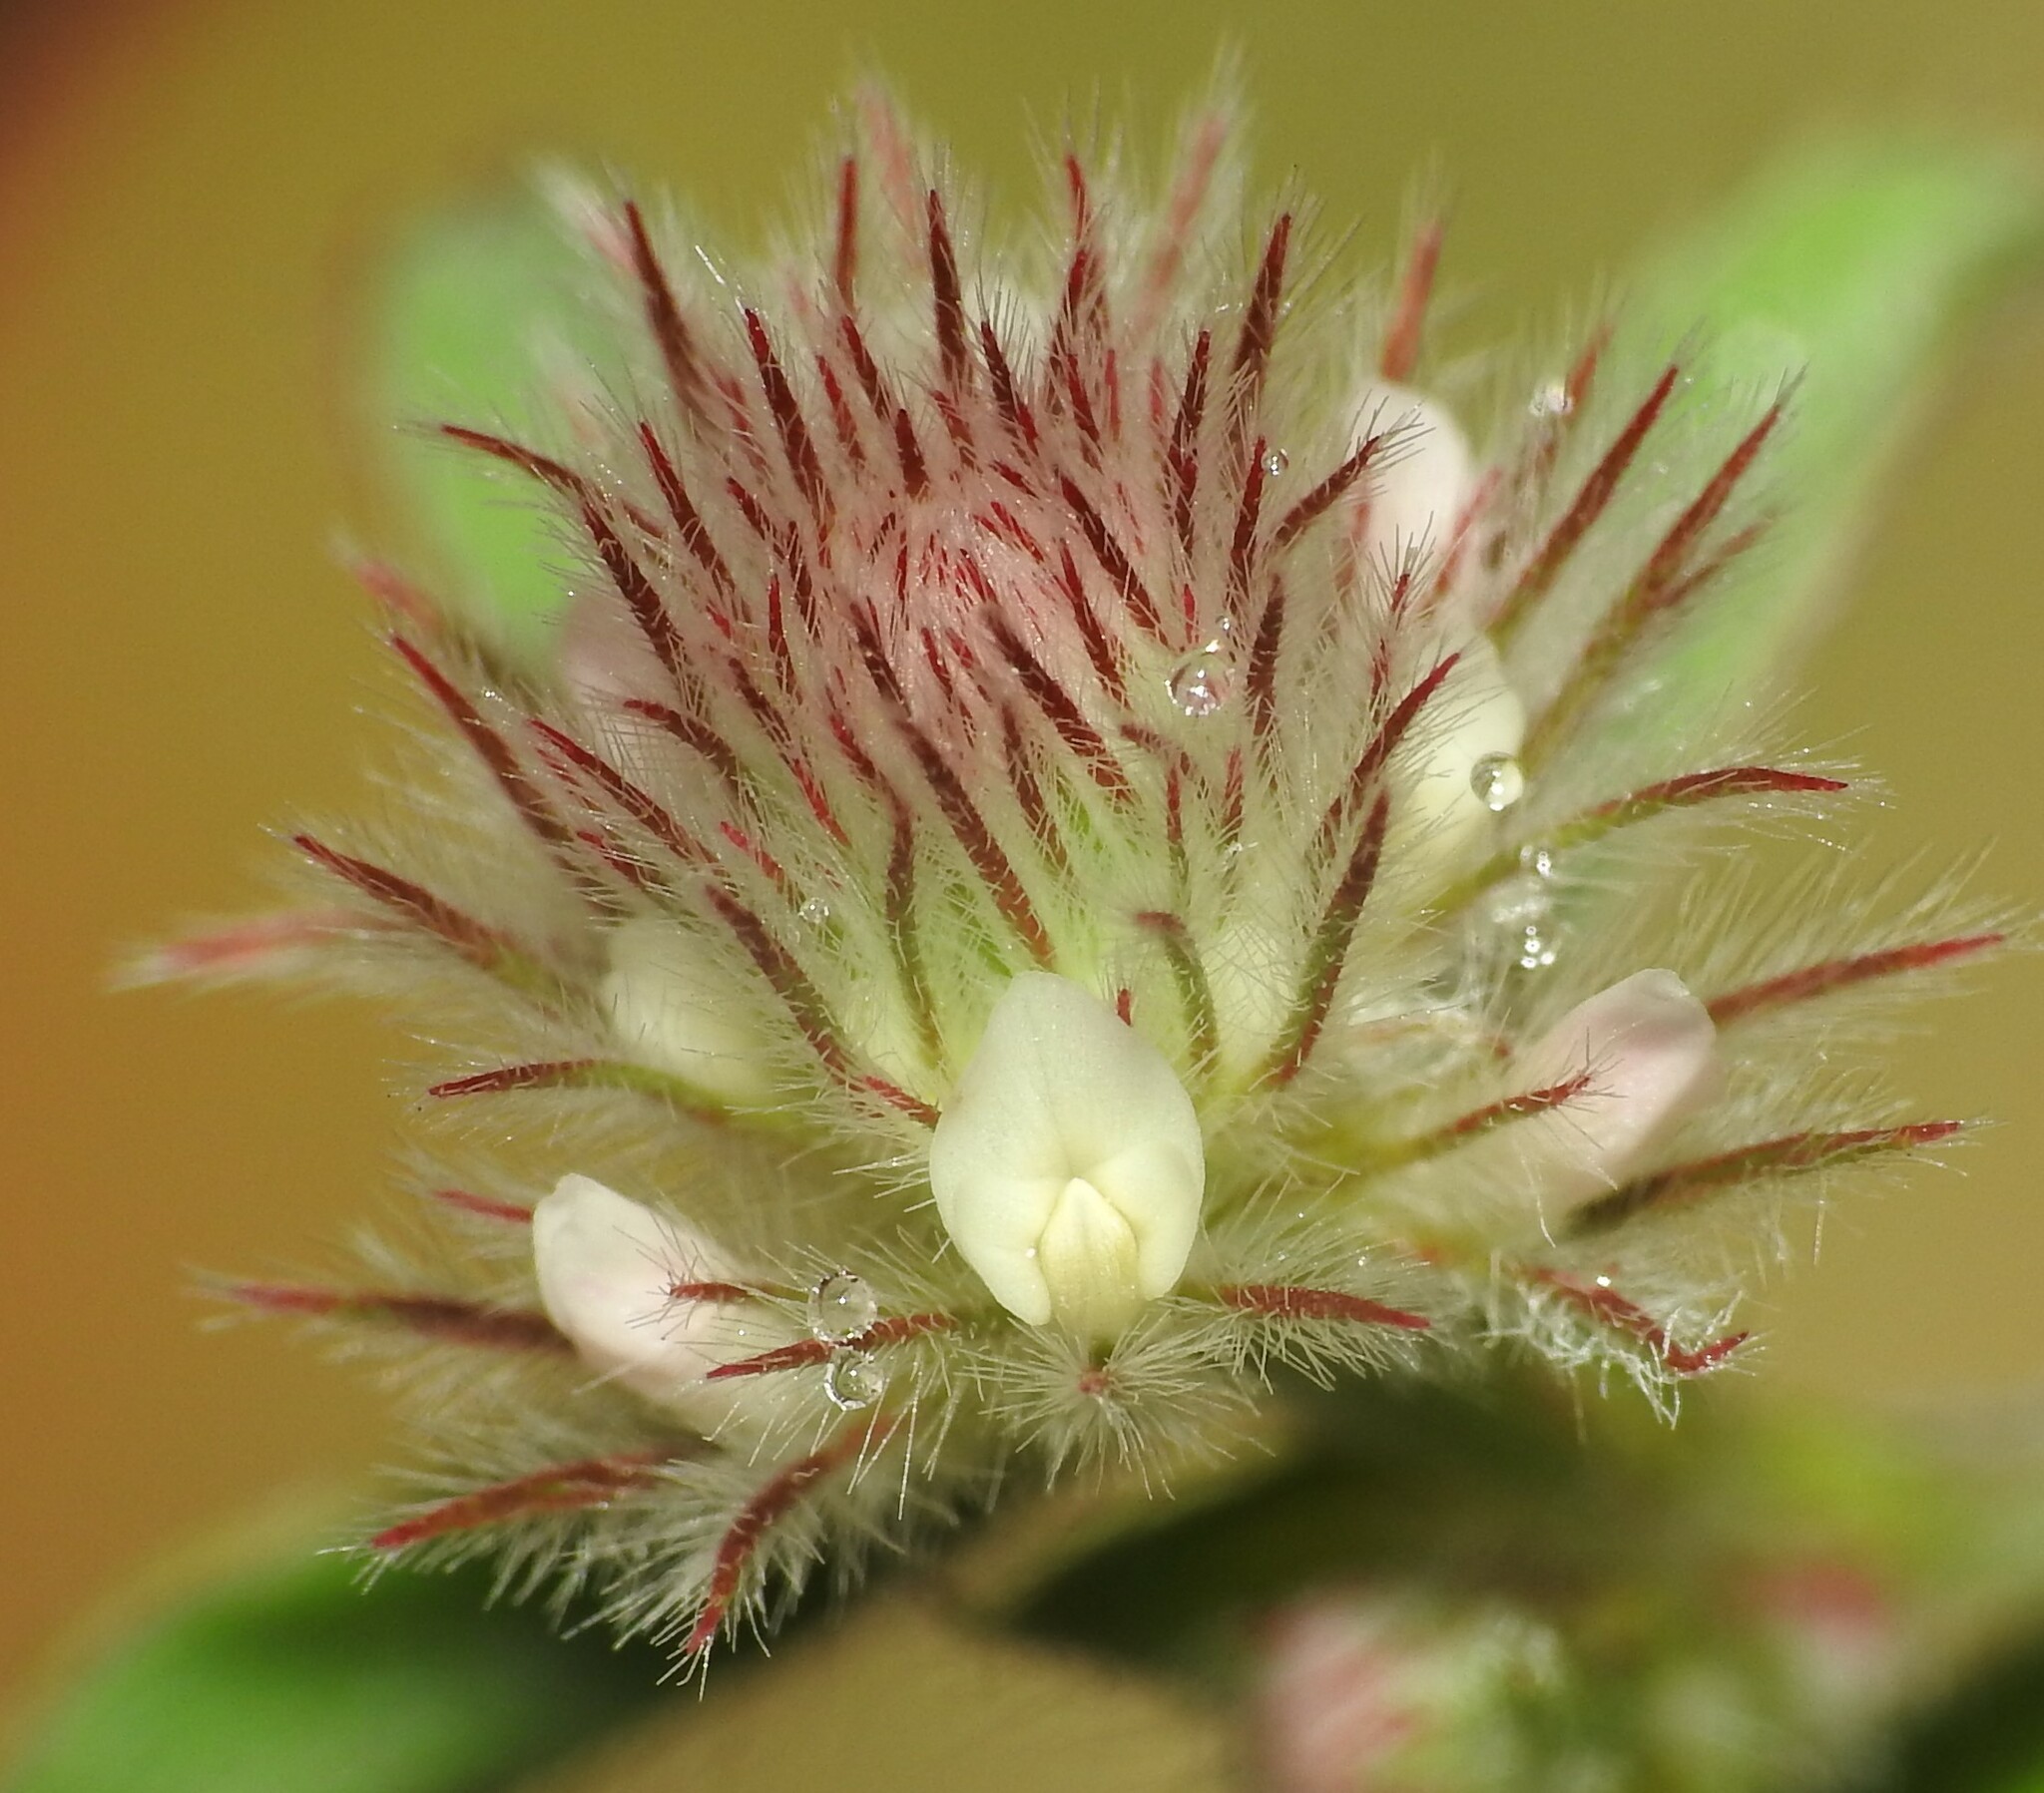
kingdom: Plantae
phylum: Tracheophyta
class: Magnoliopsida
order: Fabales
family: Fabaceae
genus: Trifolium
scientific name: Trifolium arvense
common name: Hare's-foot clover
